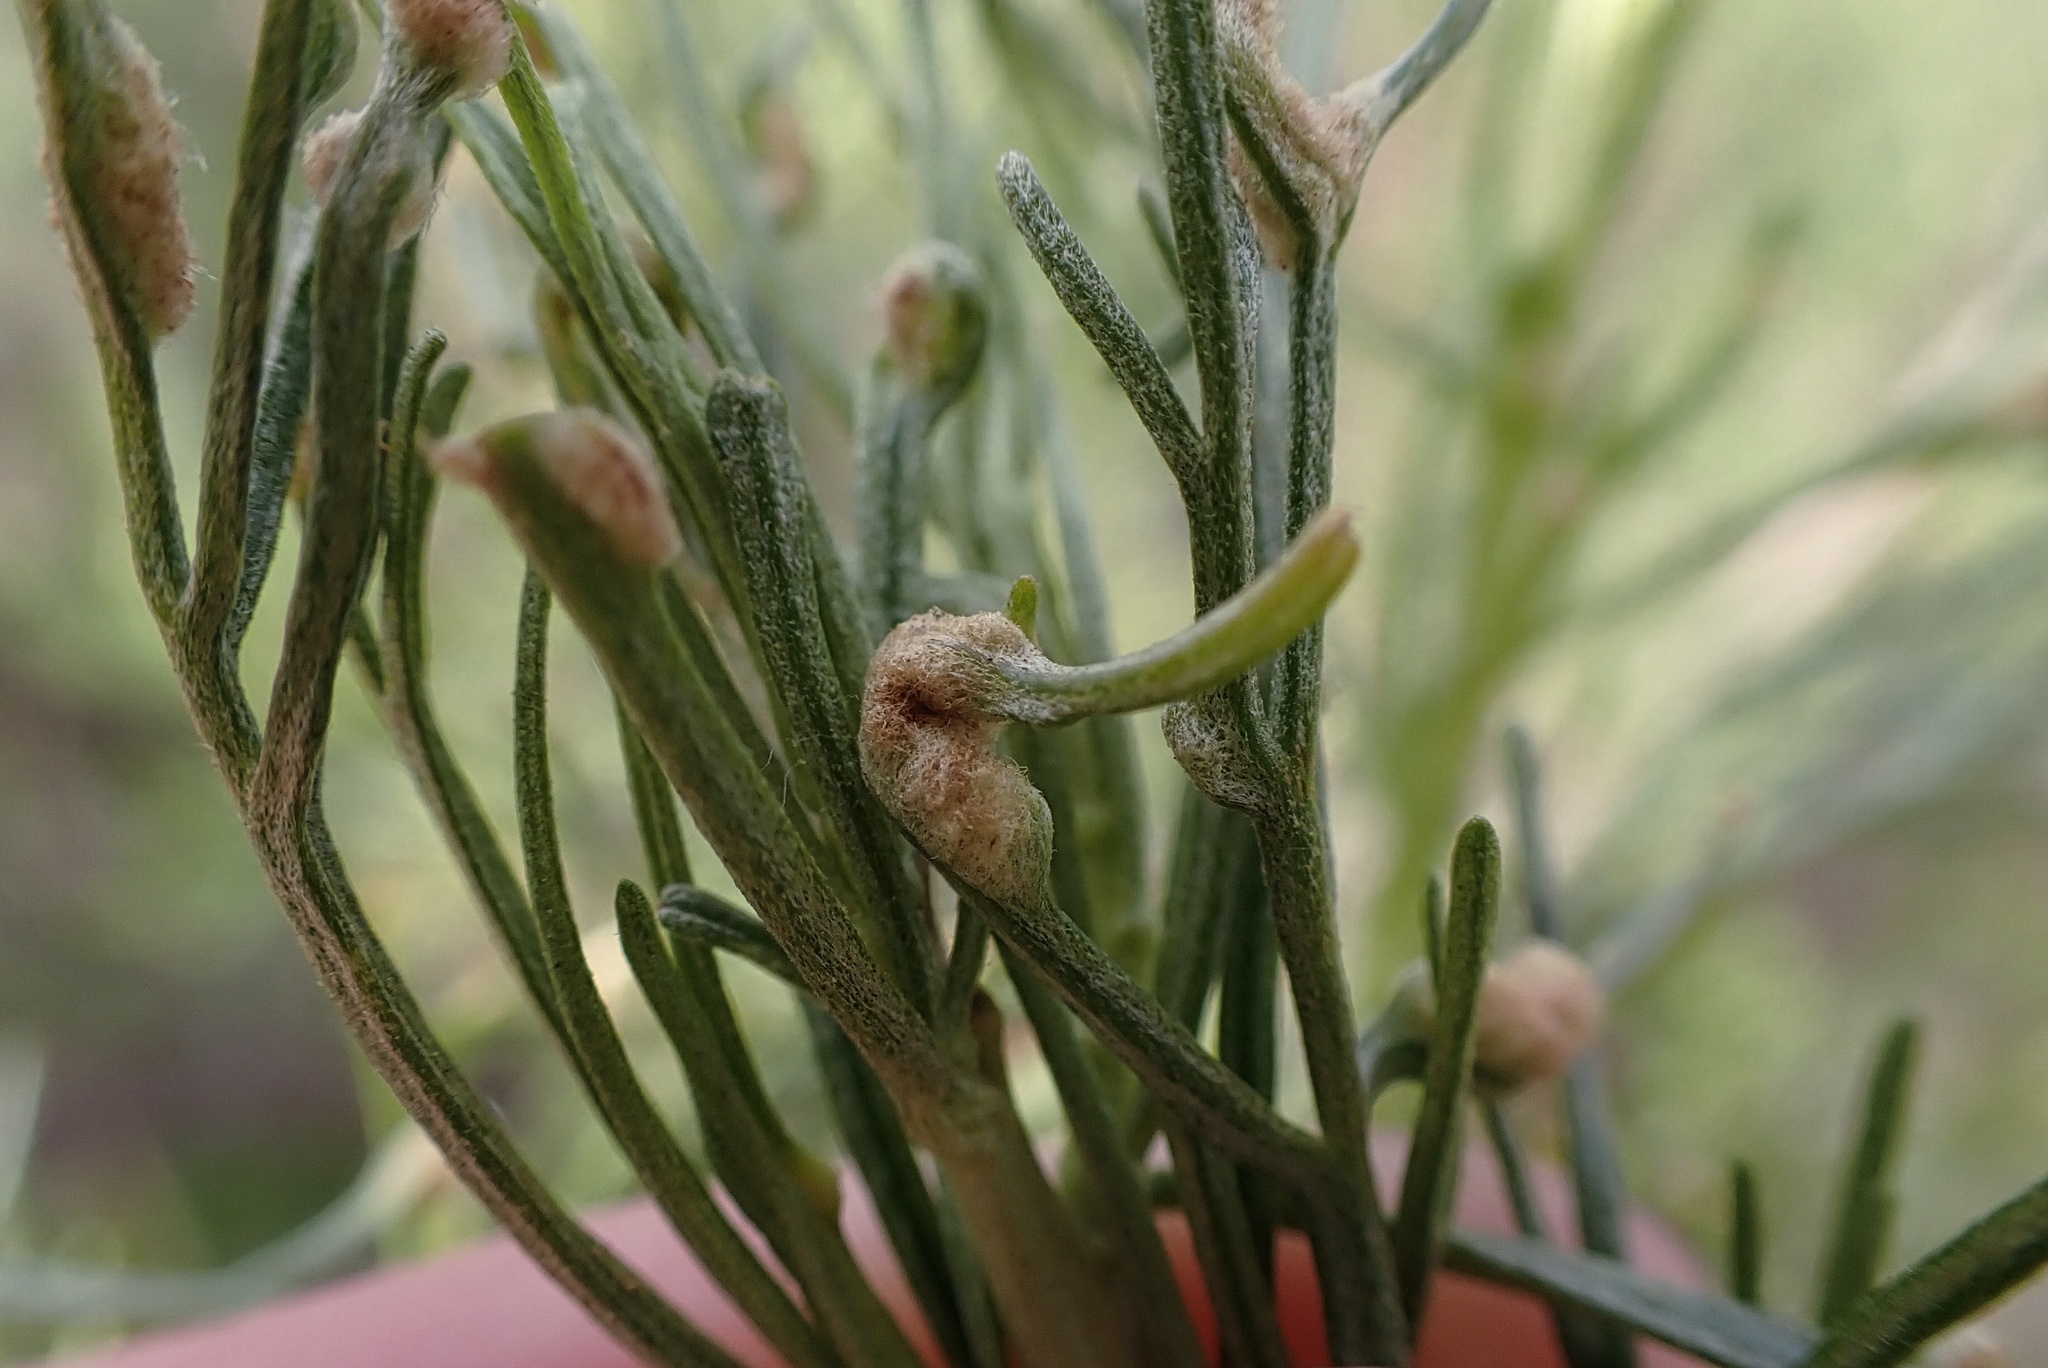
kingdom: Animalia
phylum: Arthropoda
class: Arachnida
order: Trombidiformes
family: Eriophyidae
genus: Aceria
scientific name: Aceria
